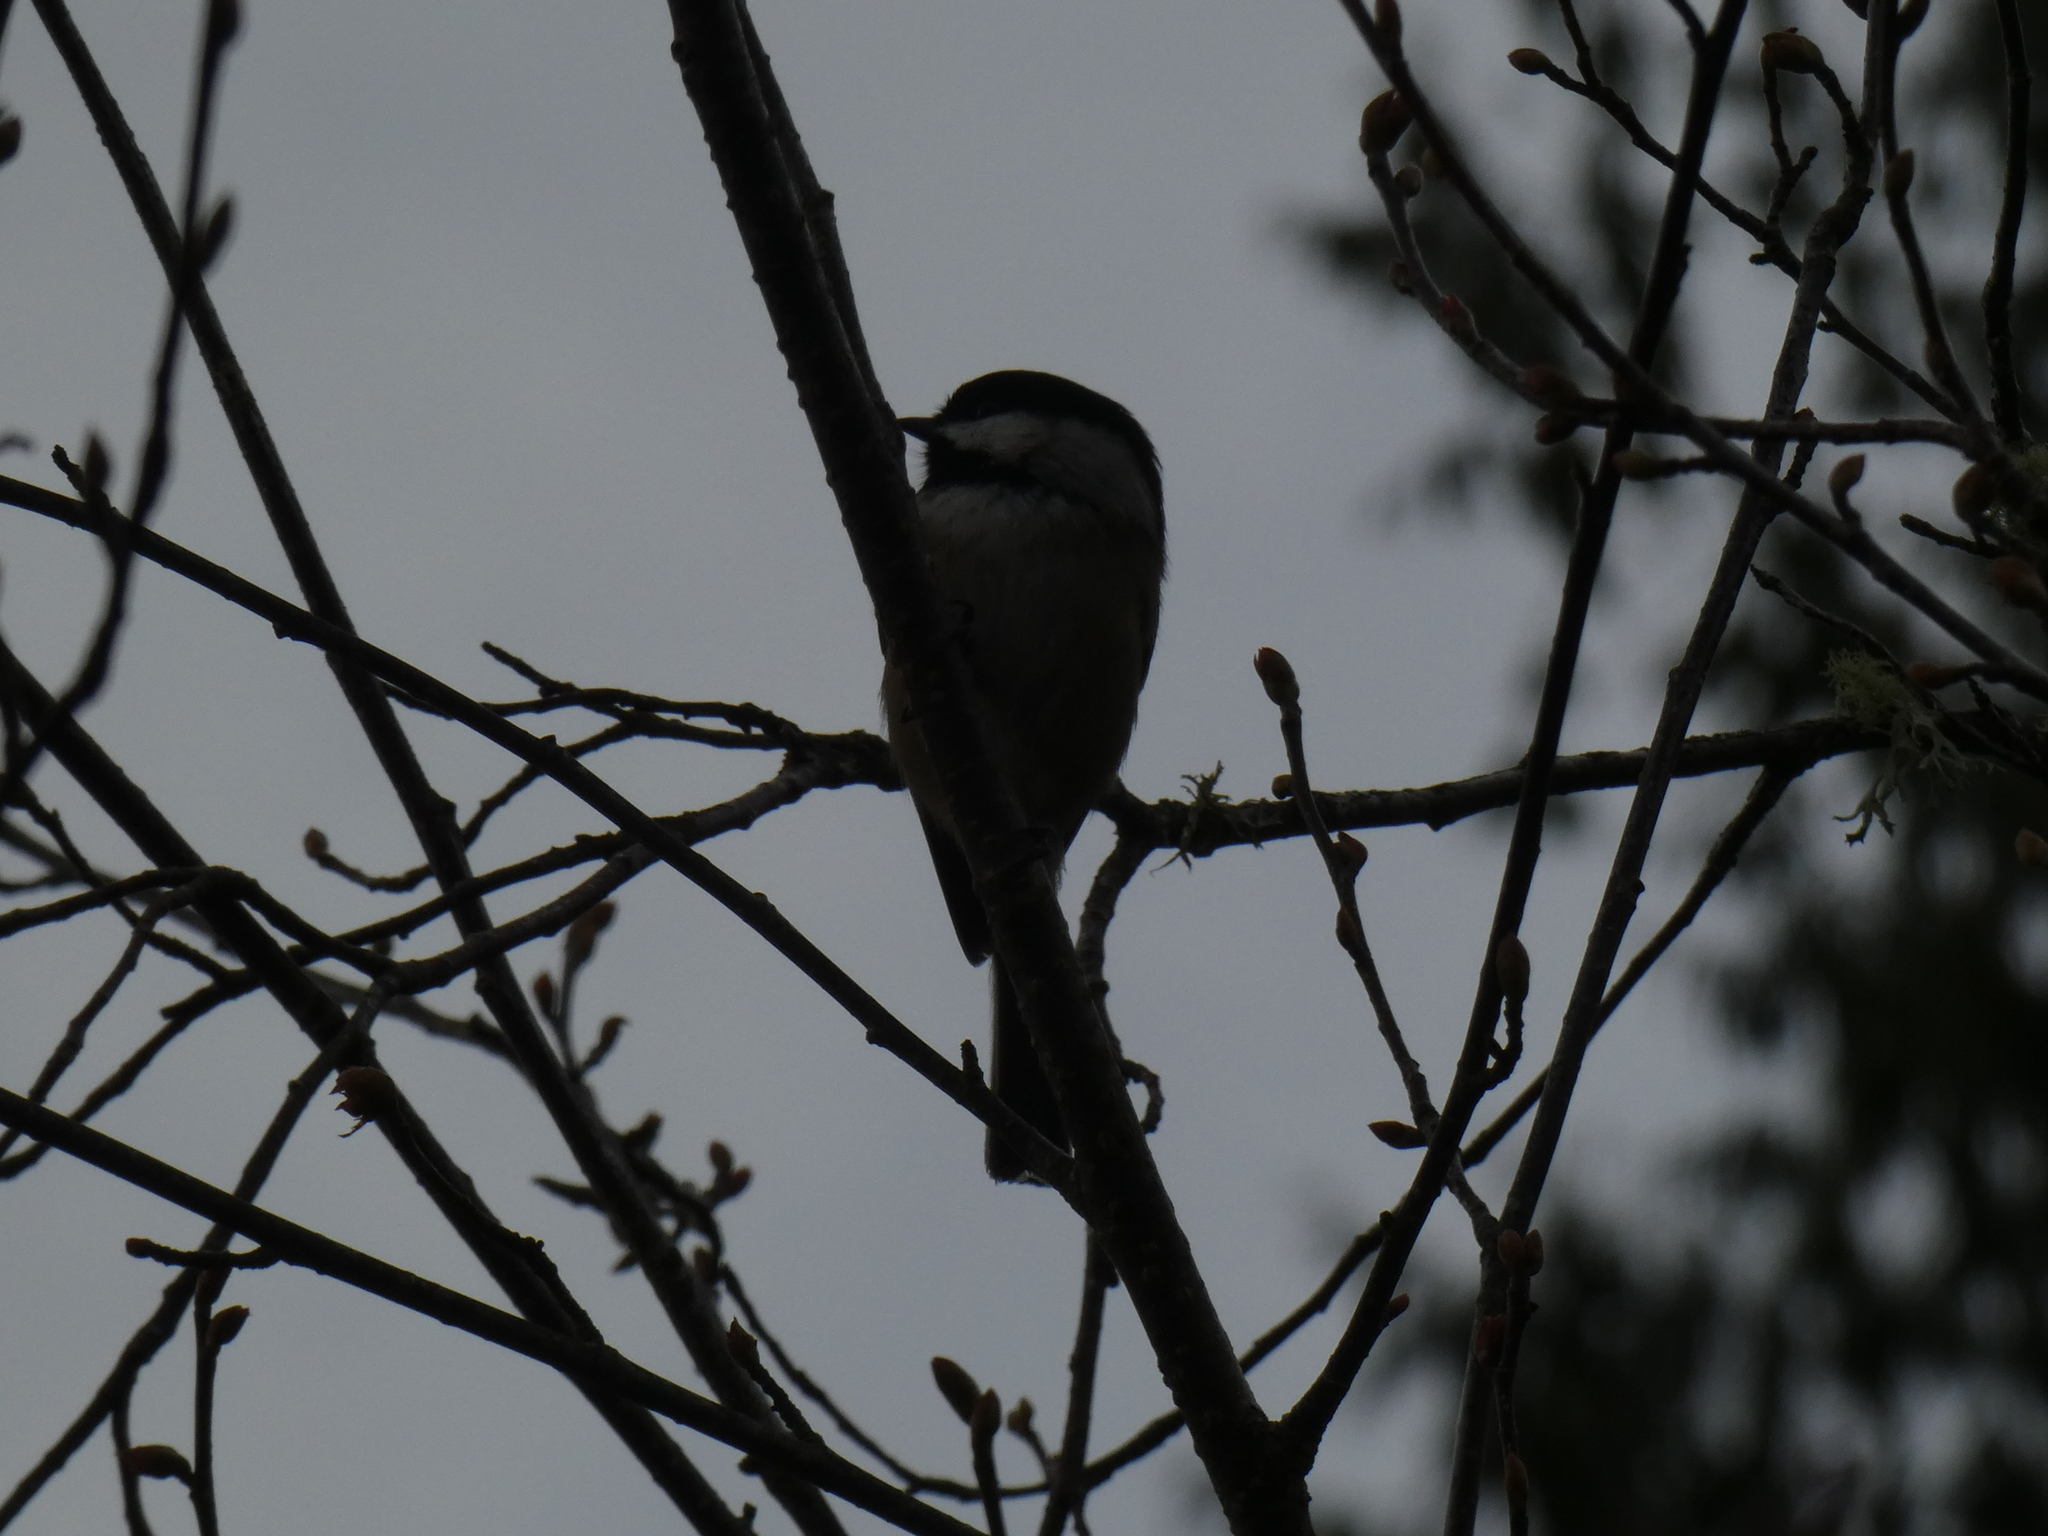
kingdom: Animalia
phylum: Chordata
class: Aves
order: Passeriformes
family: Paridae
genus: Poecile
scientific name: Poecile atricapillus
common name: Black-capped chickadee
